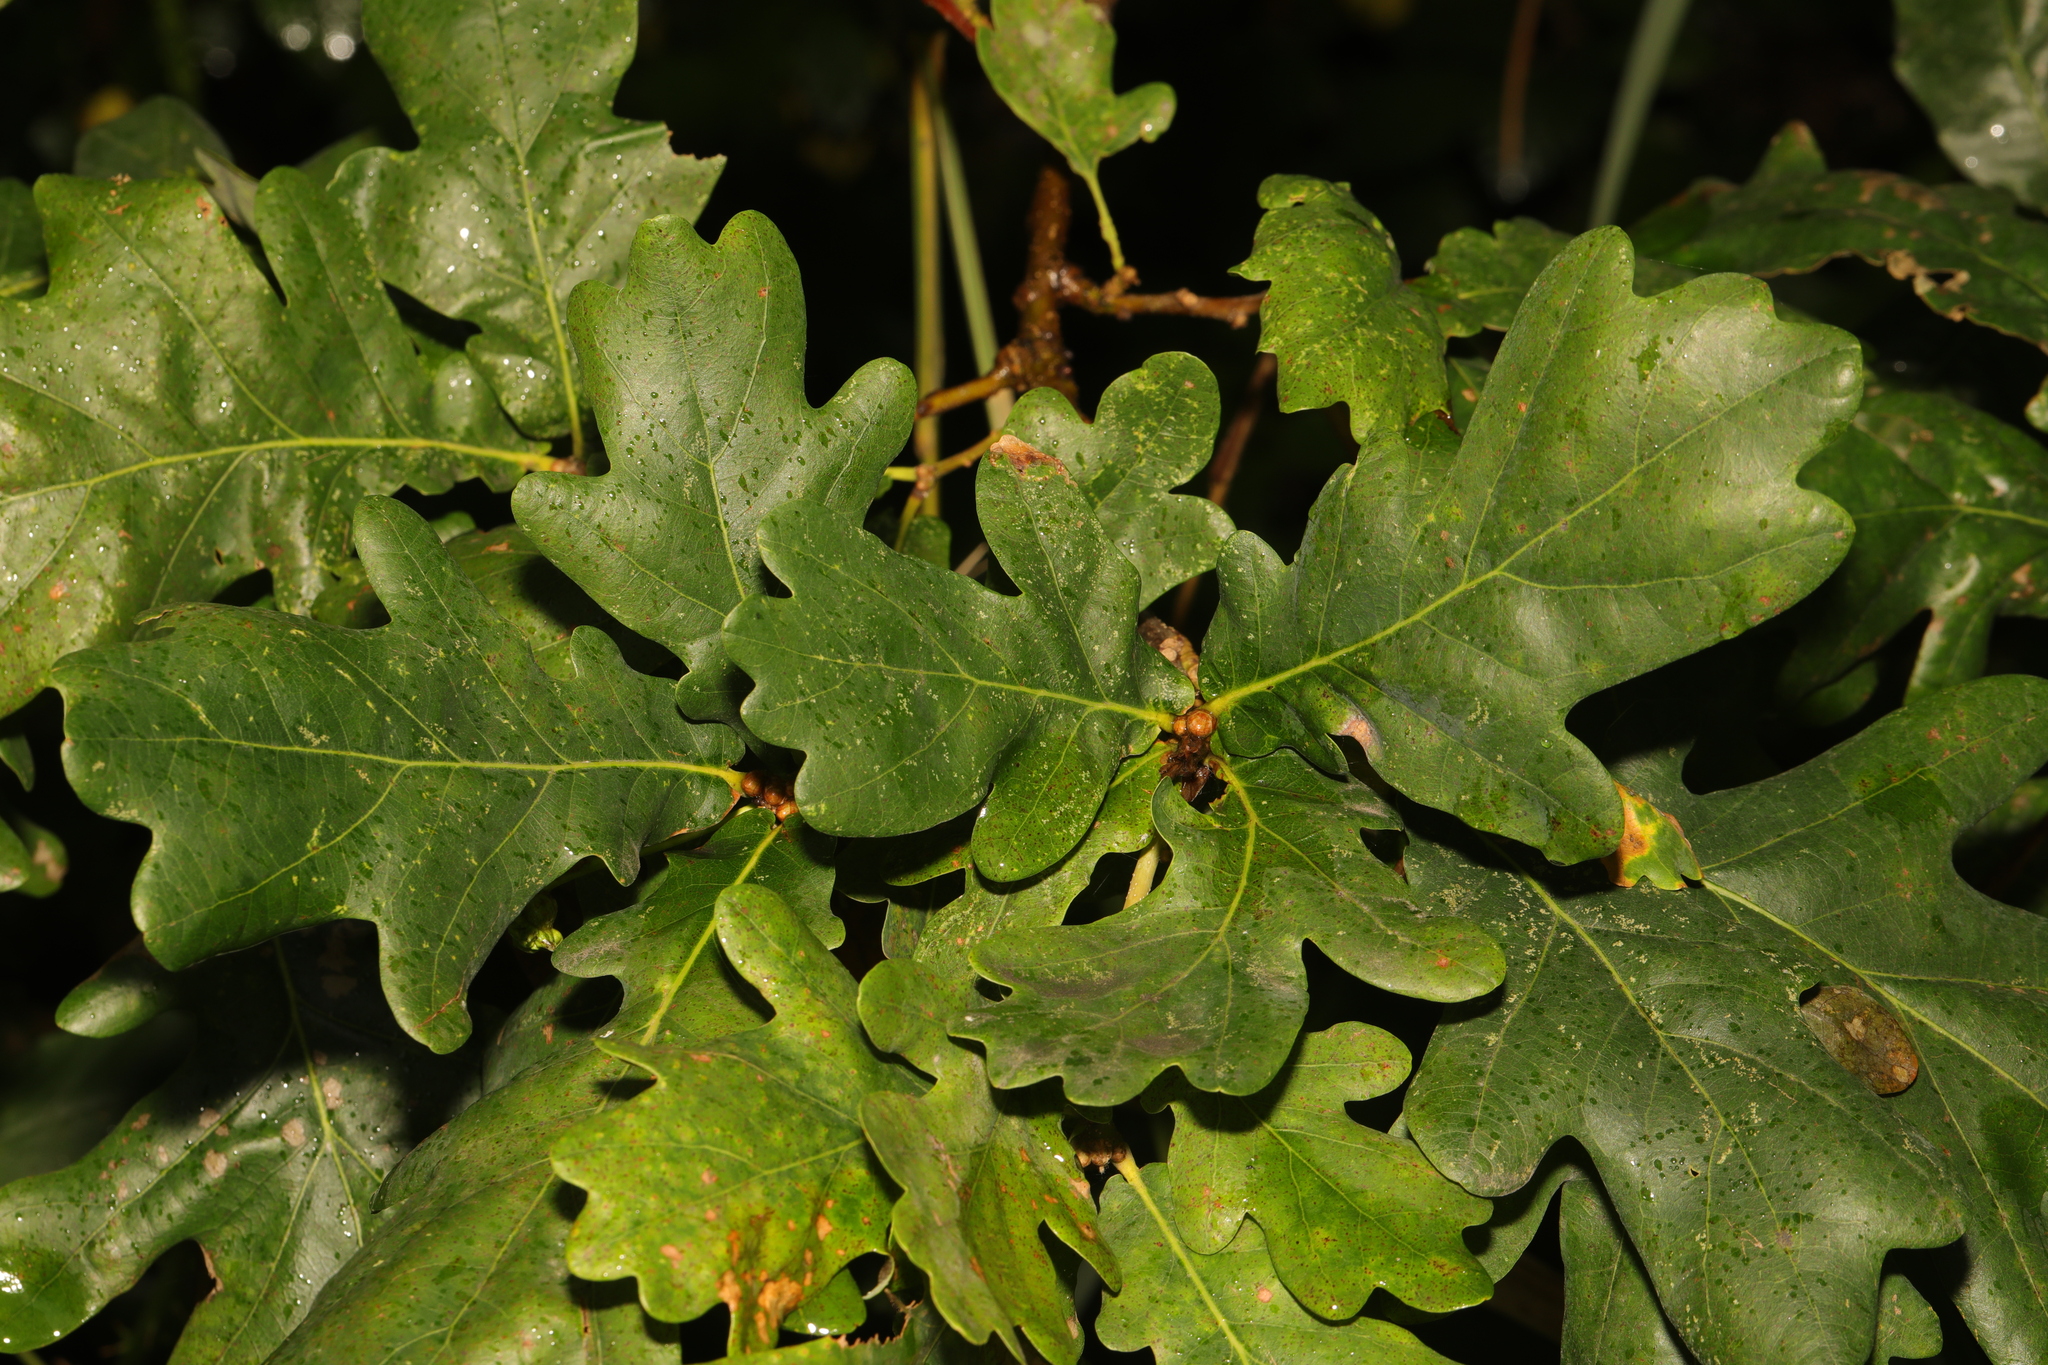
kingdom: Plantae
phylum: Tracheophyta
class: Magnoliopsida
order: Fagales
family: Fagaceae
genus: Quercus
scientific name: Quercus robur
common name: Pedunculate oak
